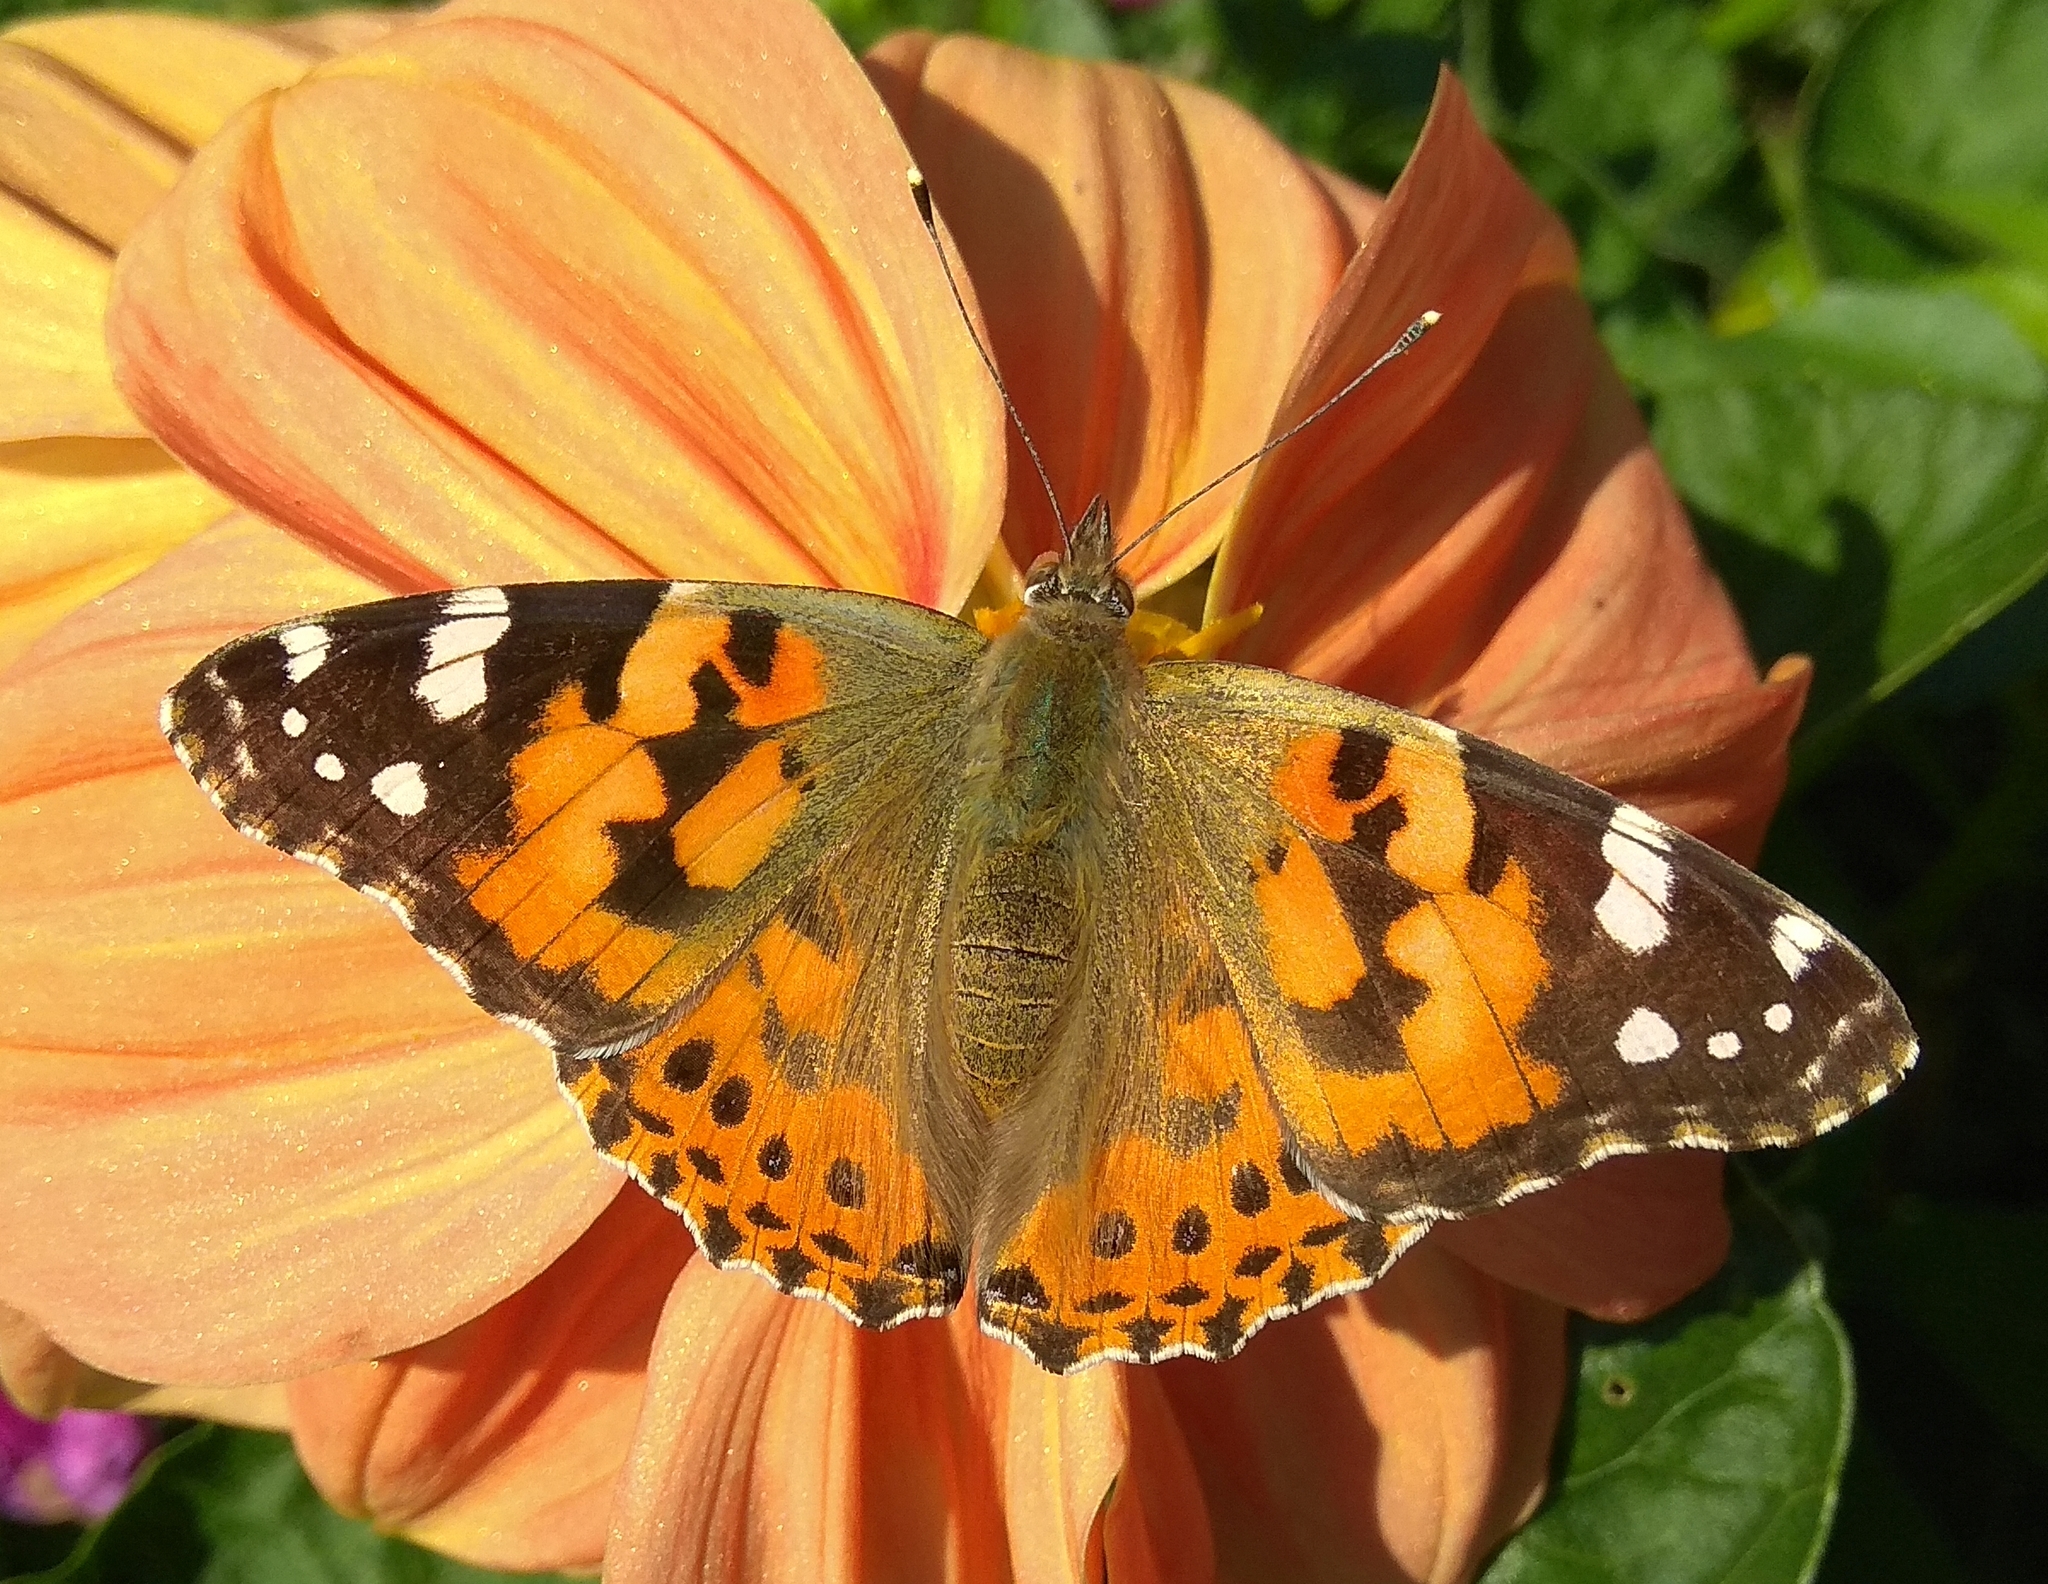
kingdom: Animalia
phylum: Arthropoda
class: Insecta
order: Lepidoptera
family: Nymphalidae
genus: Vanessa
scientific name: Vanessa cardui
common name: Painted lady
